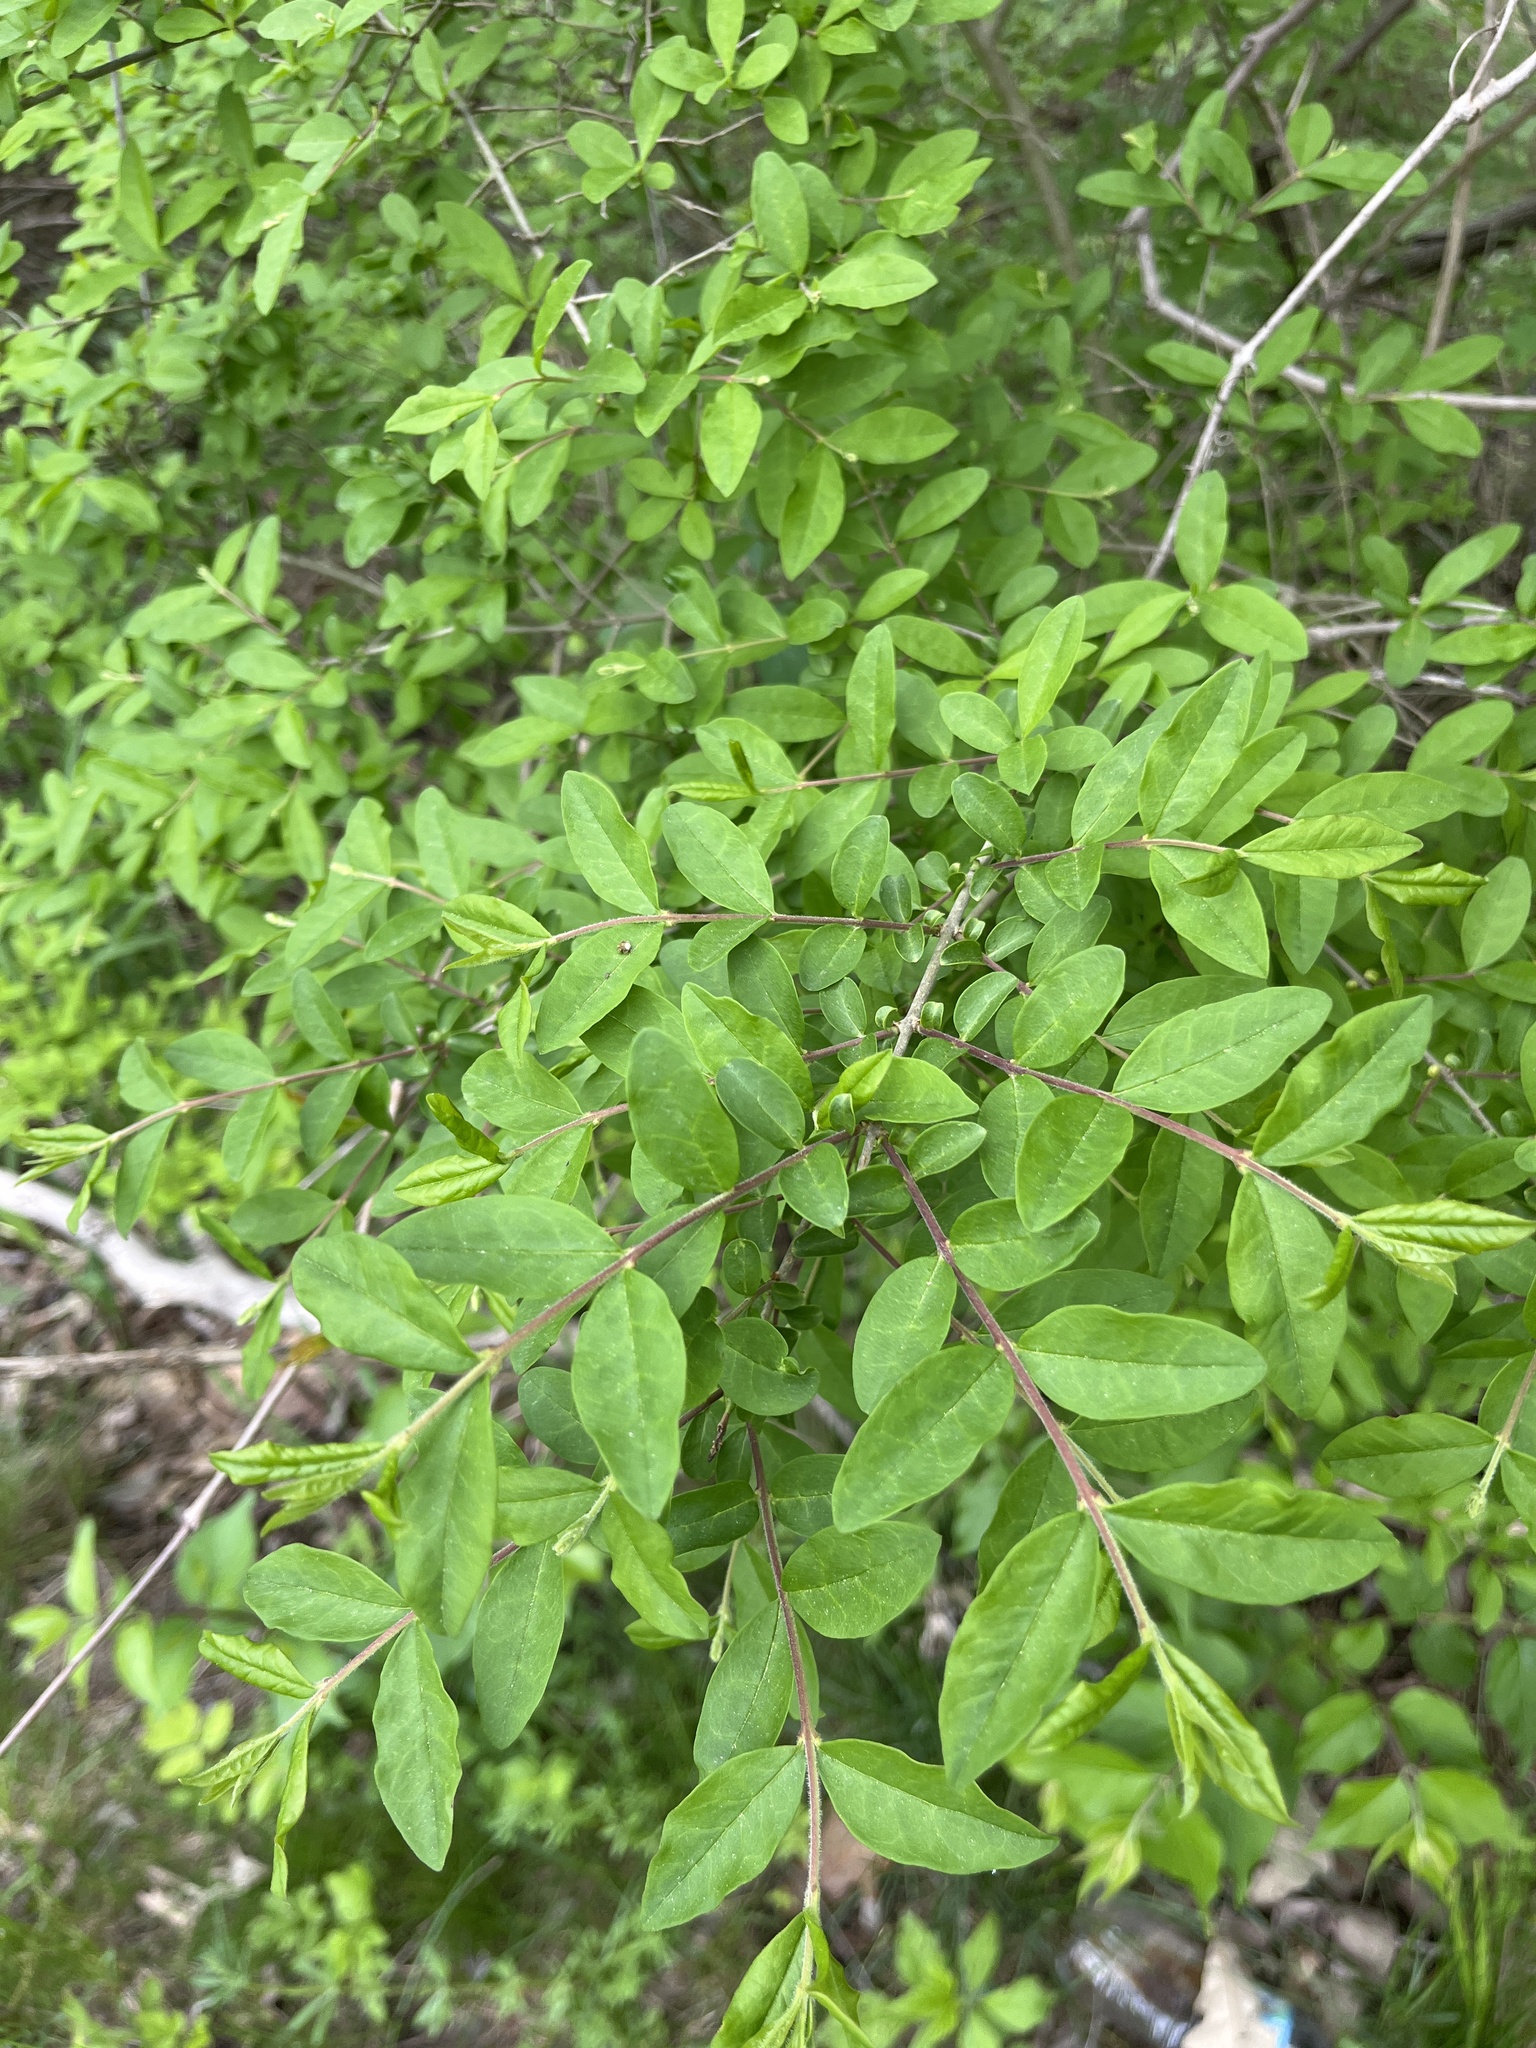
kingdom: Plantae
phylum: Tracheophyta
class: Magnoliopsida
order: Lamiales
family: Oleaceae
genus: Ligustrum
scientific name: Ligustrum obtusifolium
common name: Border privet
